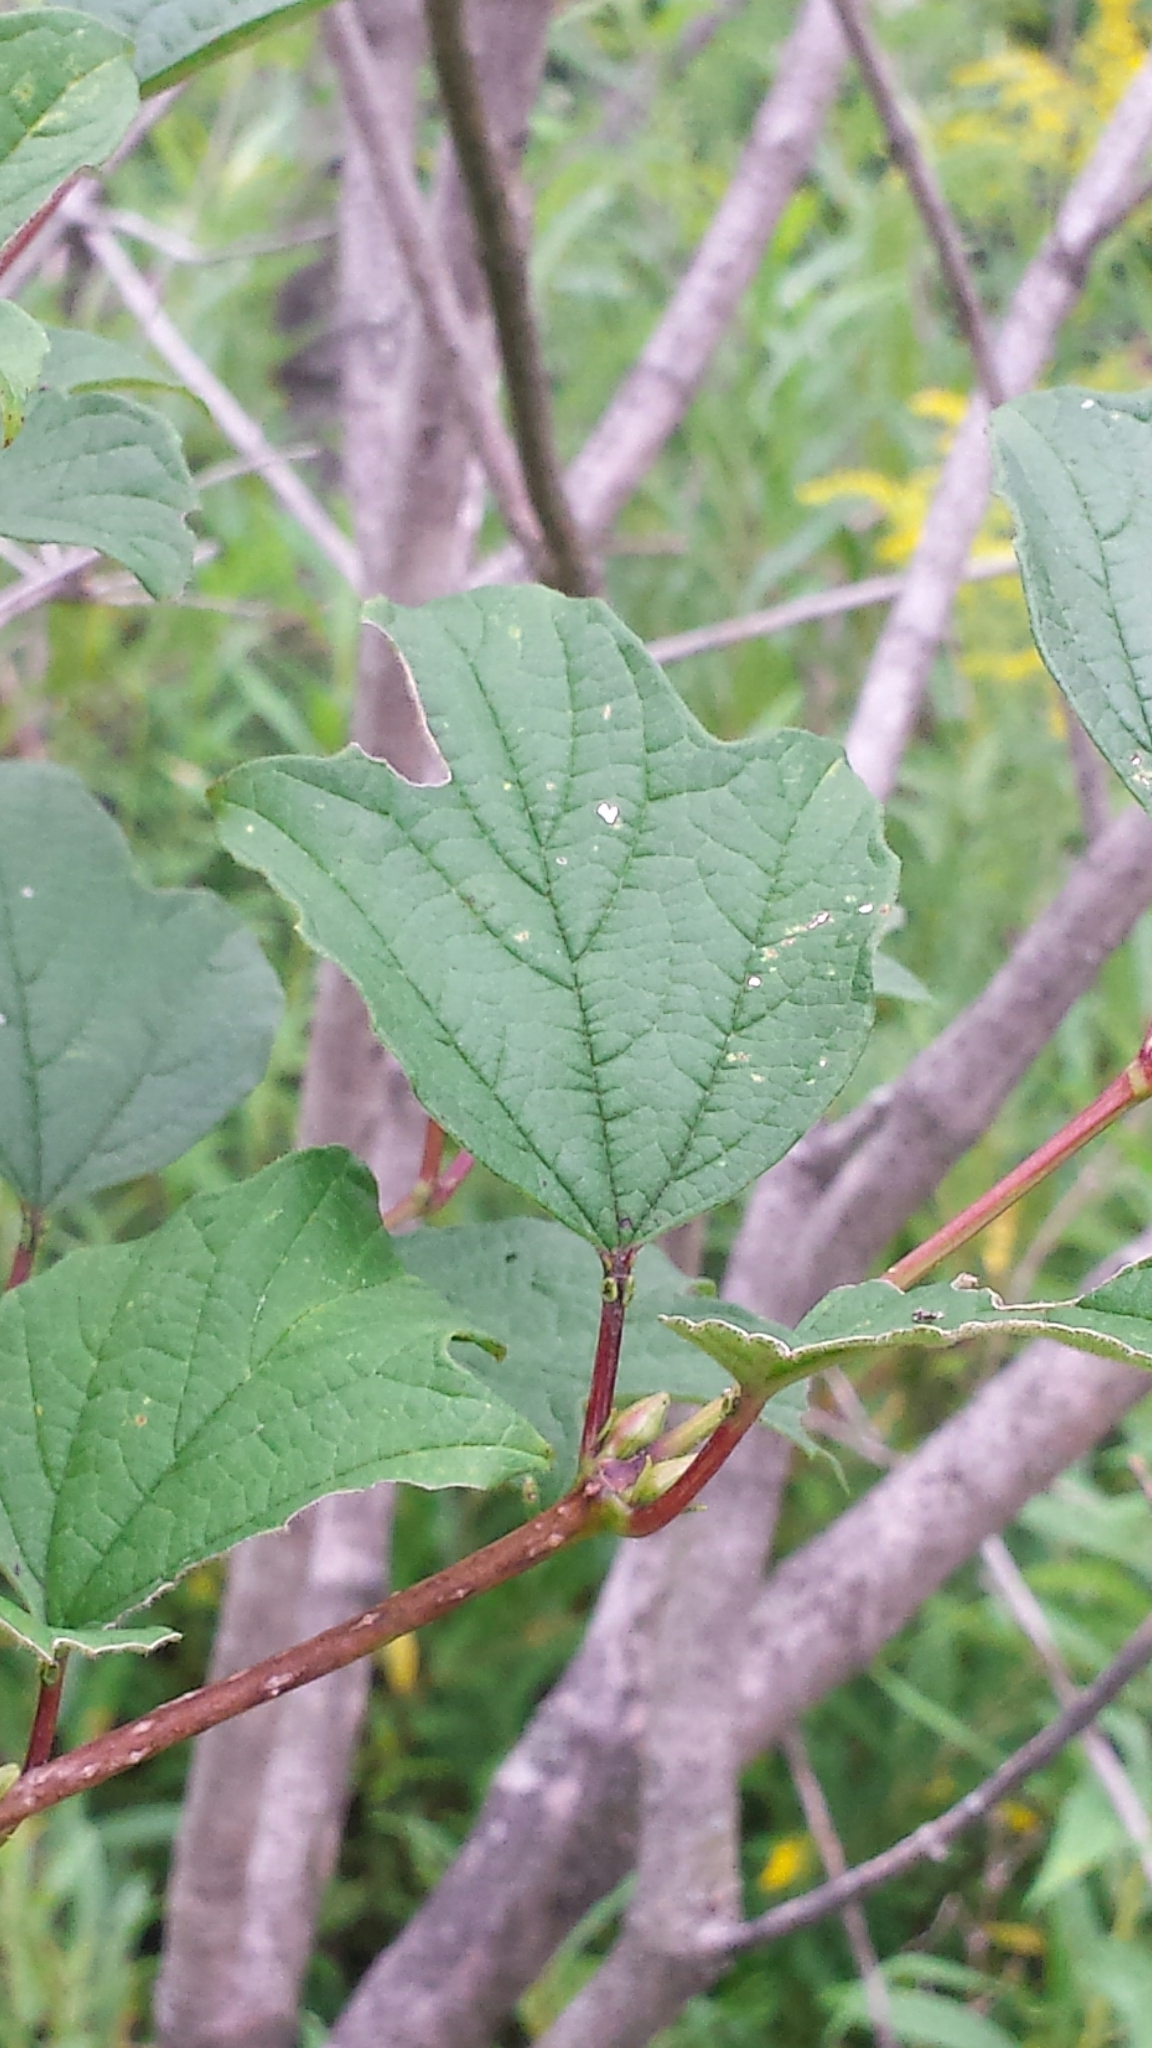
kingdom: Plantae
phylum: Tracheophyta
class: Magnoliopsida
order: Dipsacales
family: Viburnaceae
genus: Viburnum
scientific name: Viburnum opulus
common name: Guelder-rose
